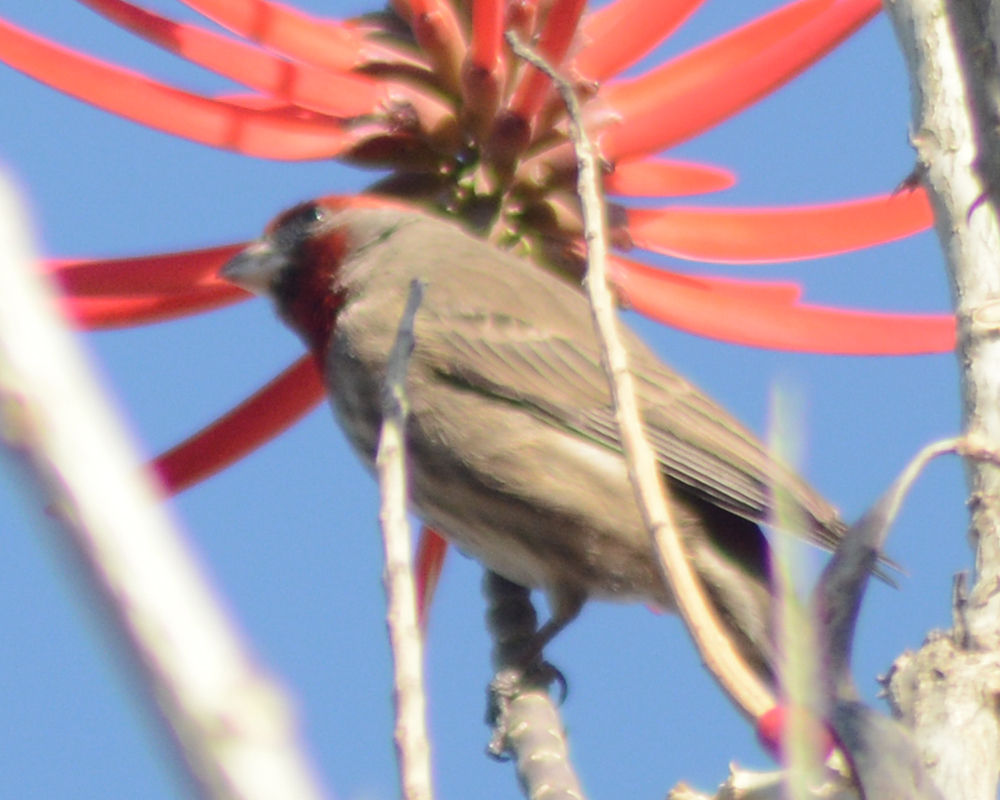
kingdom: Animalia
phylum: Chordata
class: Aves
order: Passeriformes
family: Fringillidae
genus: Haemorhous
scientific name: Haemorhous mexicanus
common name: House finch
